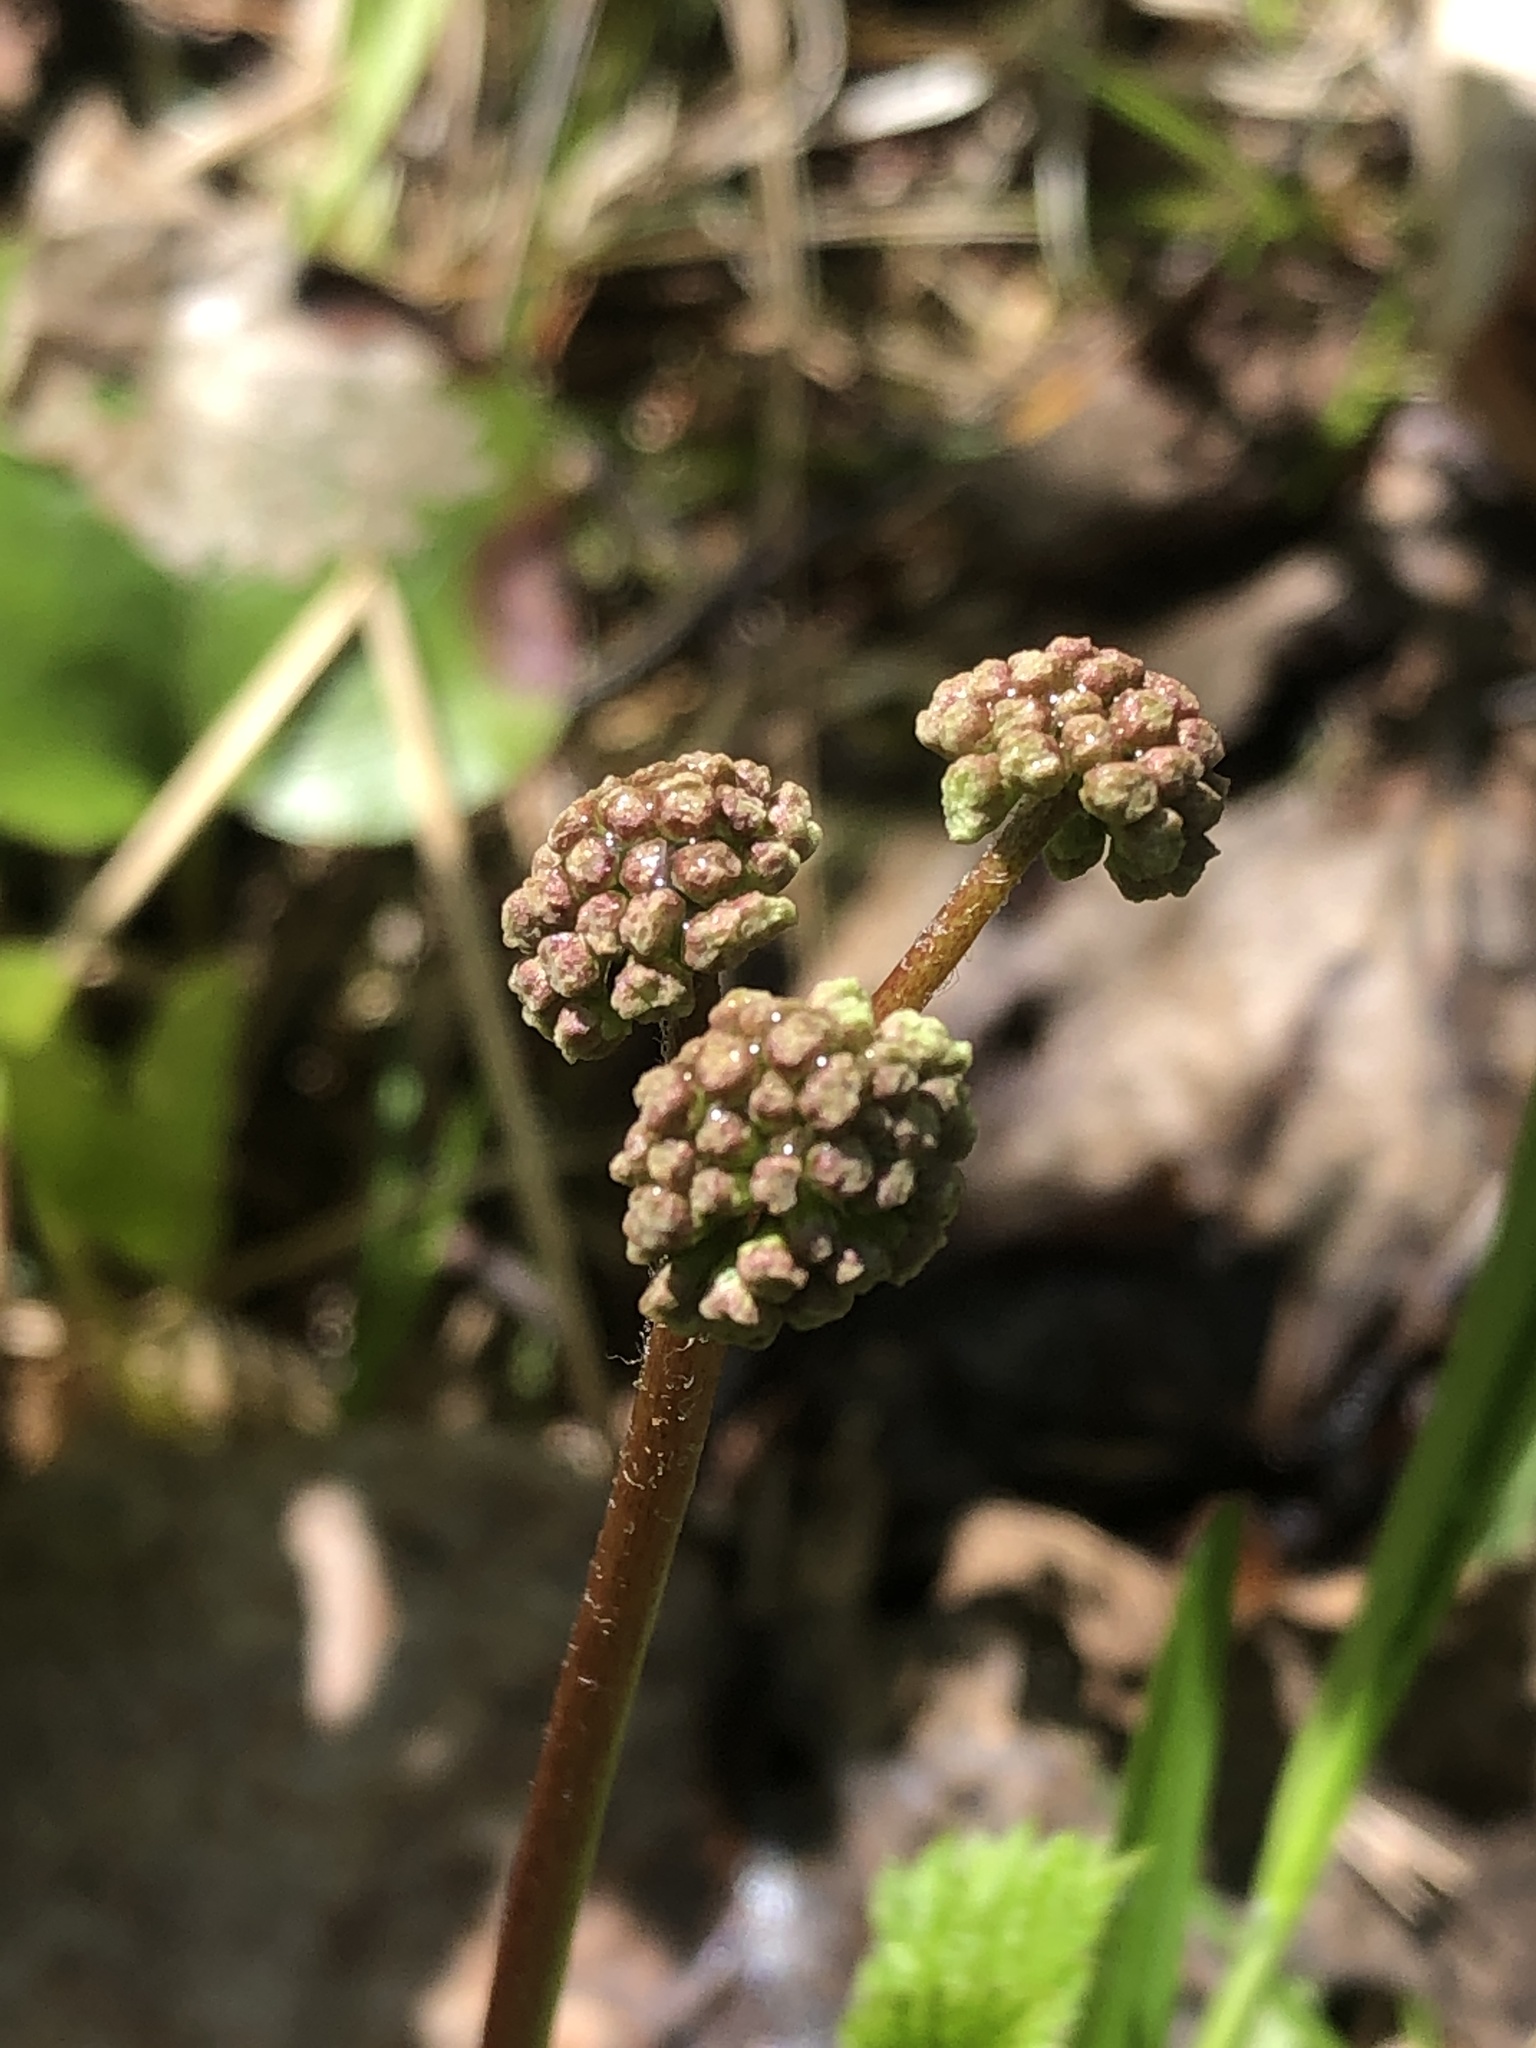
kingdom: Plantae
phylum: Tracheophyta
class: Magnoliopsida
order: Apiales
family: Araliaceae
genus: Aralia
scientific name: Aralia nudicaulis
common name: Wild sarsaparilla
